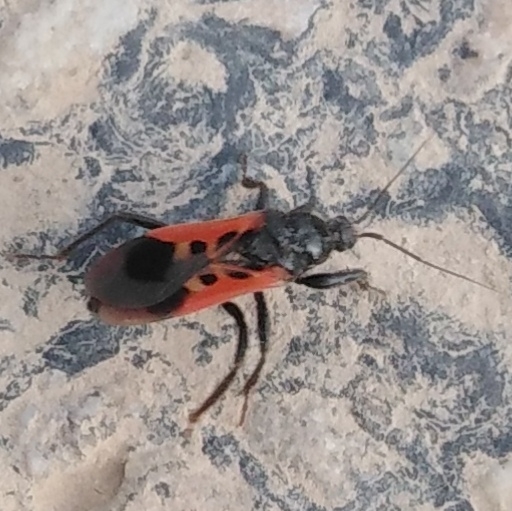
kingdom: Animalia
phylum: Arthropoda
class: Insecta
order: Hemiptera
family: Reduviidae
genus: Peirates
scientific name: Peirates hybridus
